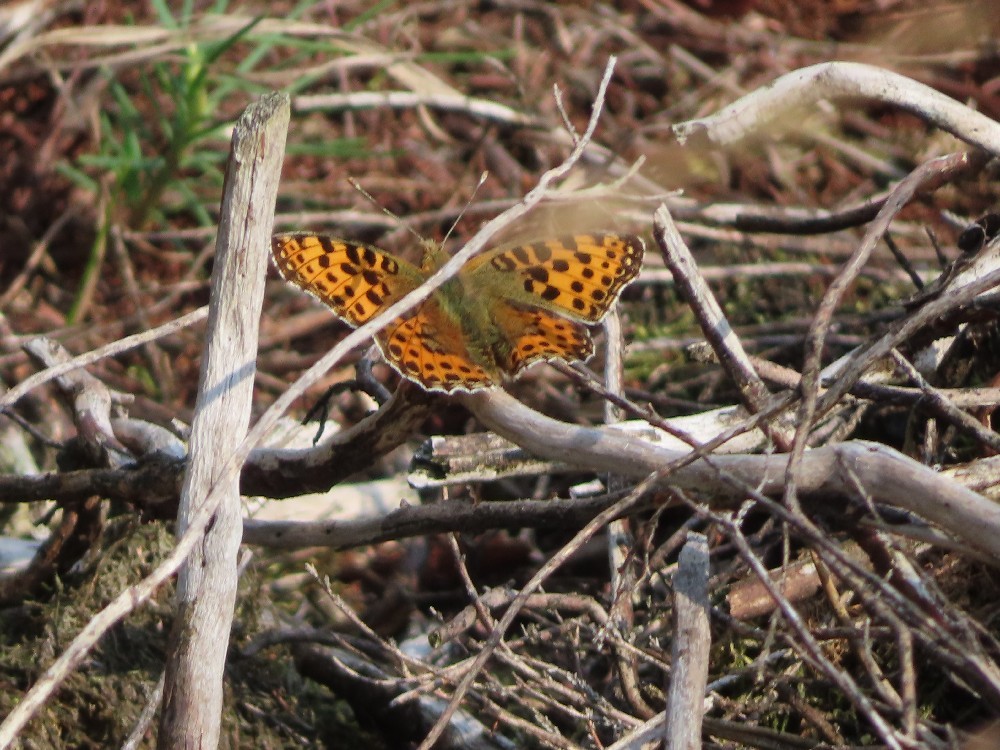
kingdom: Animalia
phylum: Arthropoda
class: Insecta
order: Lepidoptera
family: Nymphalidae
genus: Issoria
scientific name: Issoria lathonia
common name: Queen of spain fritillary
